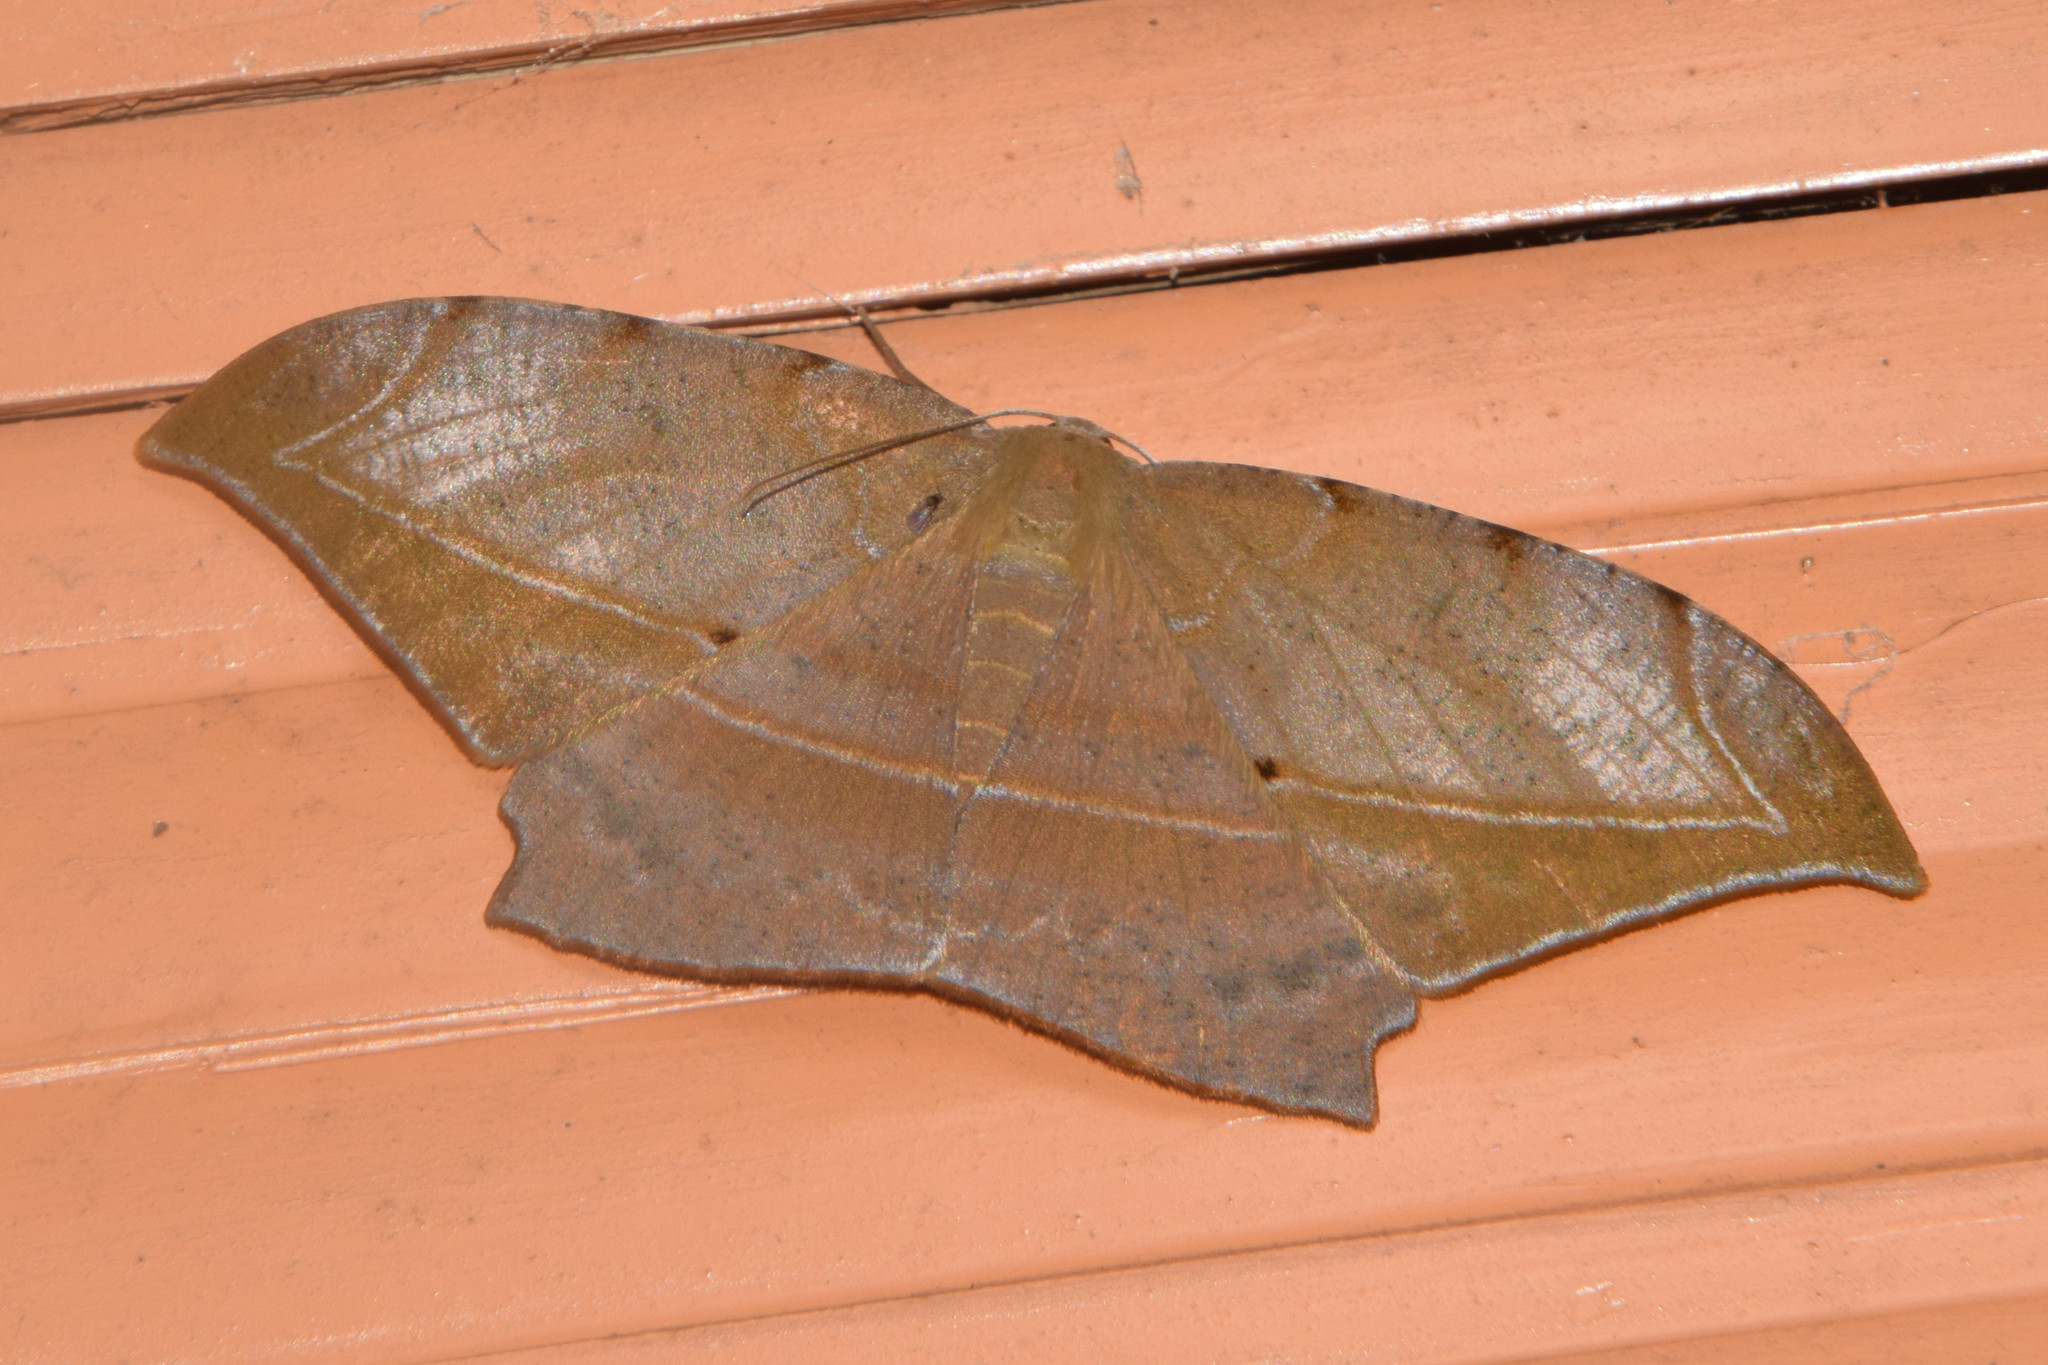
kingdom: Animalia
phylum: Arthropoda
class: Insecta
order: Lepidoptera
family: Geometridae
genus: Dalima
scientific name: Dalima schistacearia
